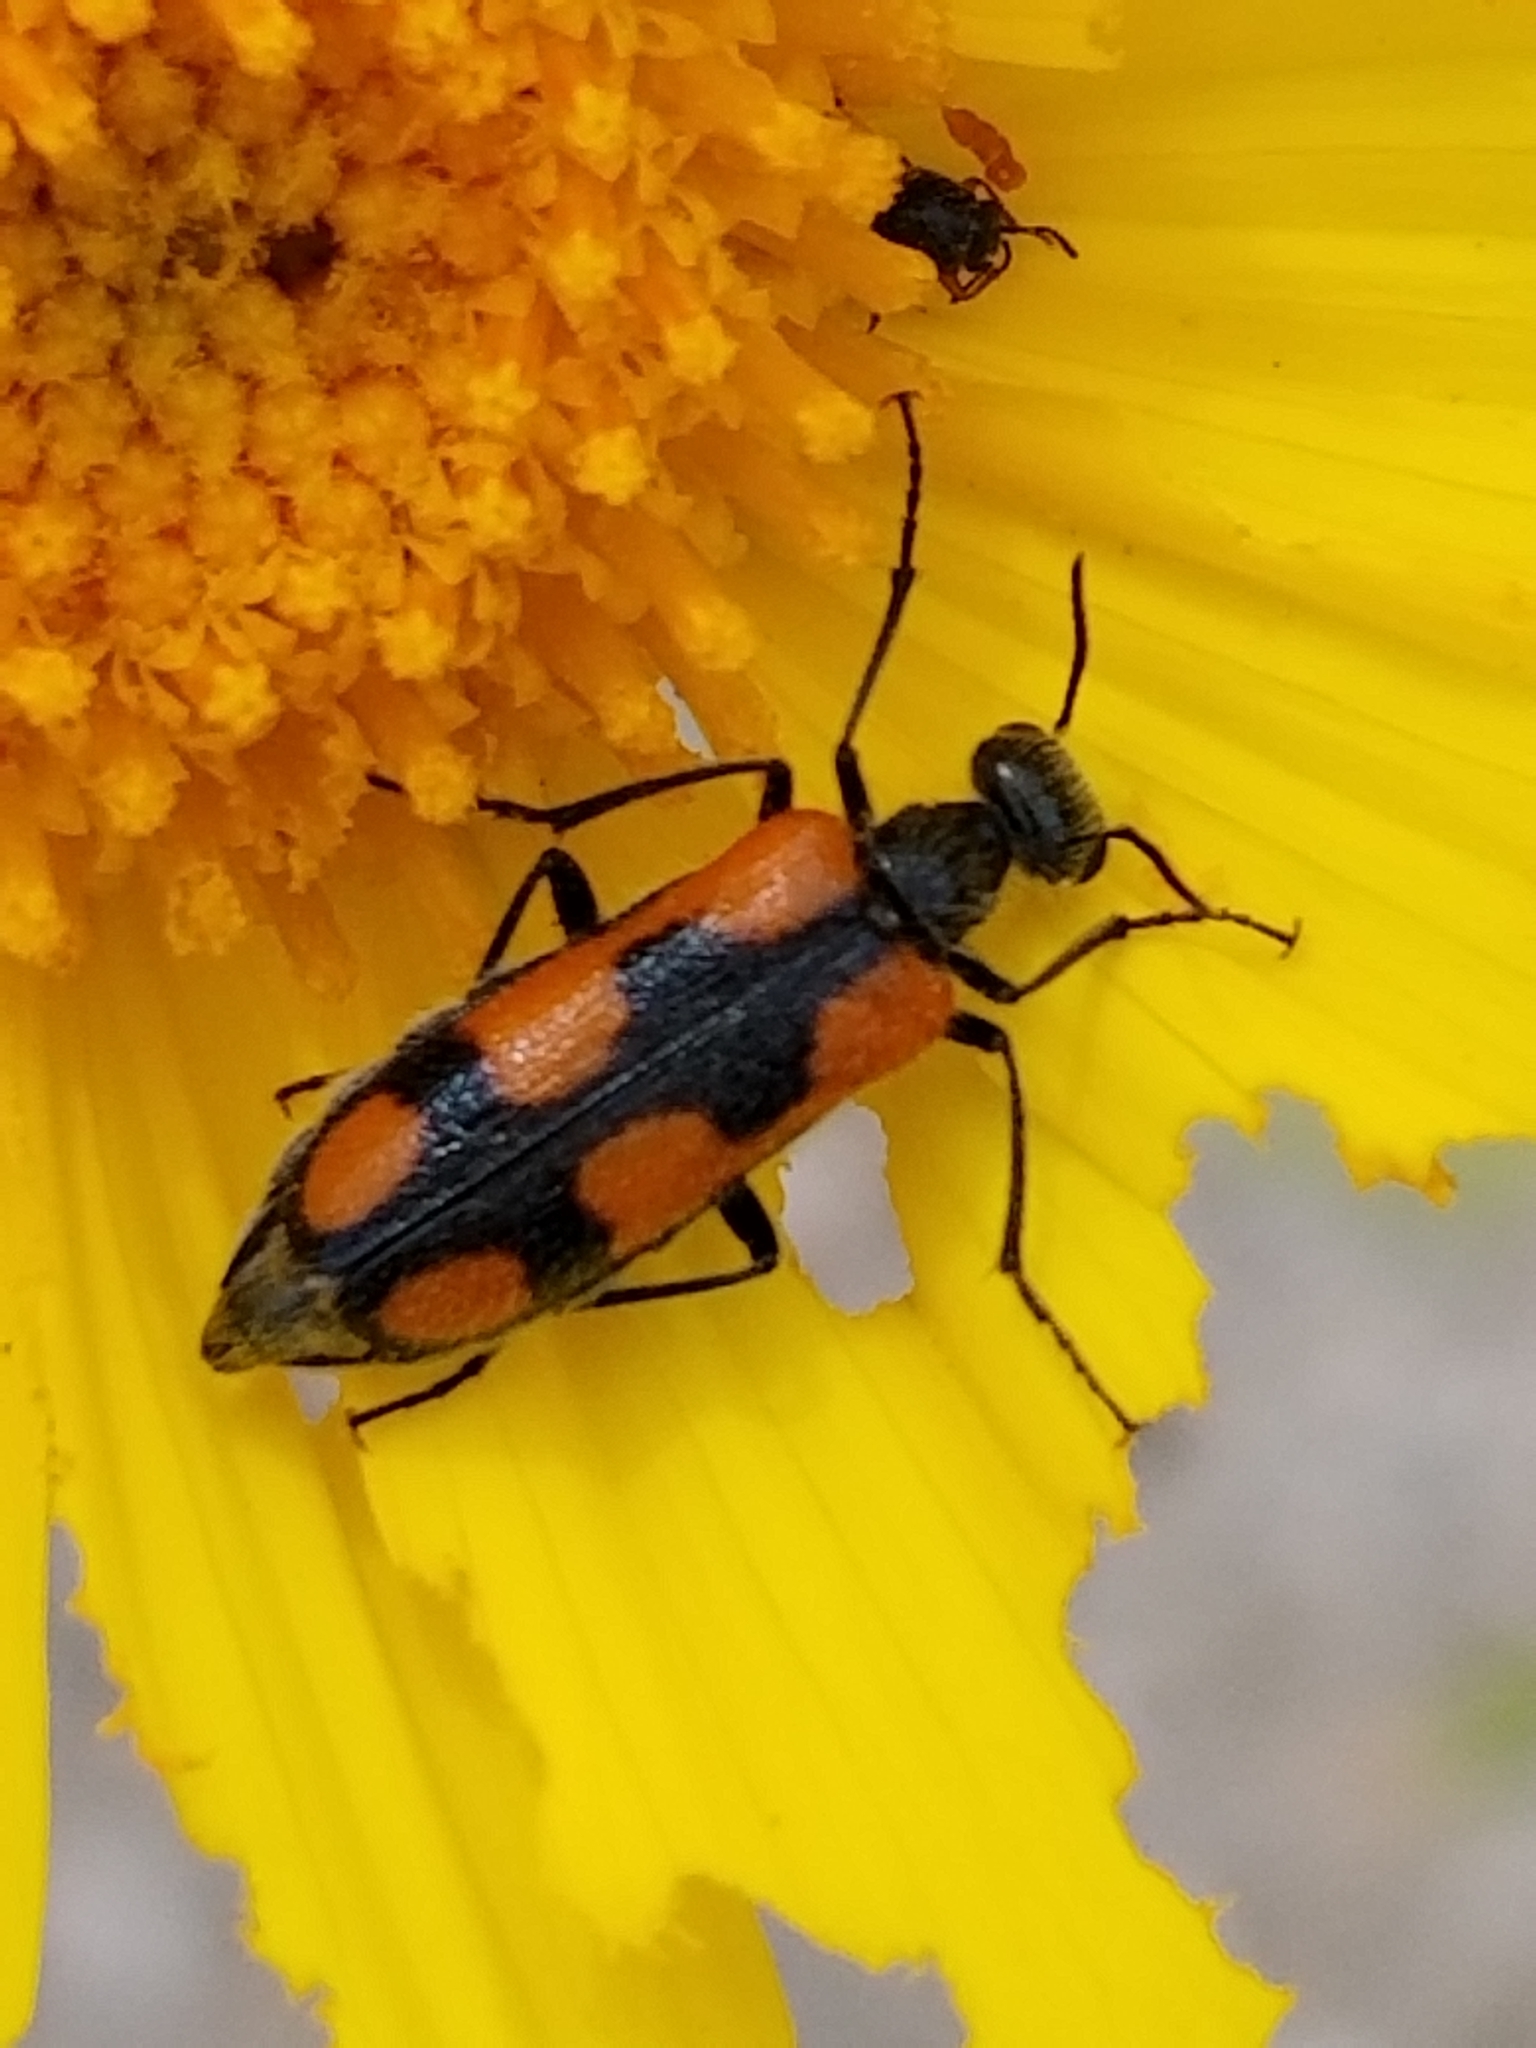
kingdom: Animalia
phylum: Arthropoda
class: Insecta
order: Coleoptera
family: Meloidae
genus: Eupompha
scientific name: Eupompha elegans
